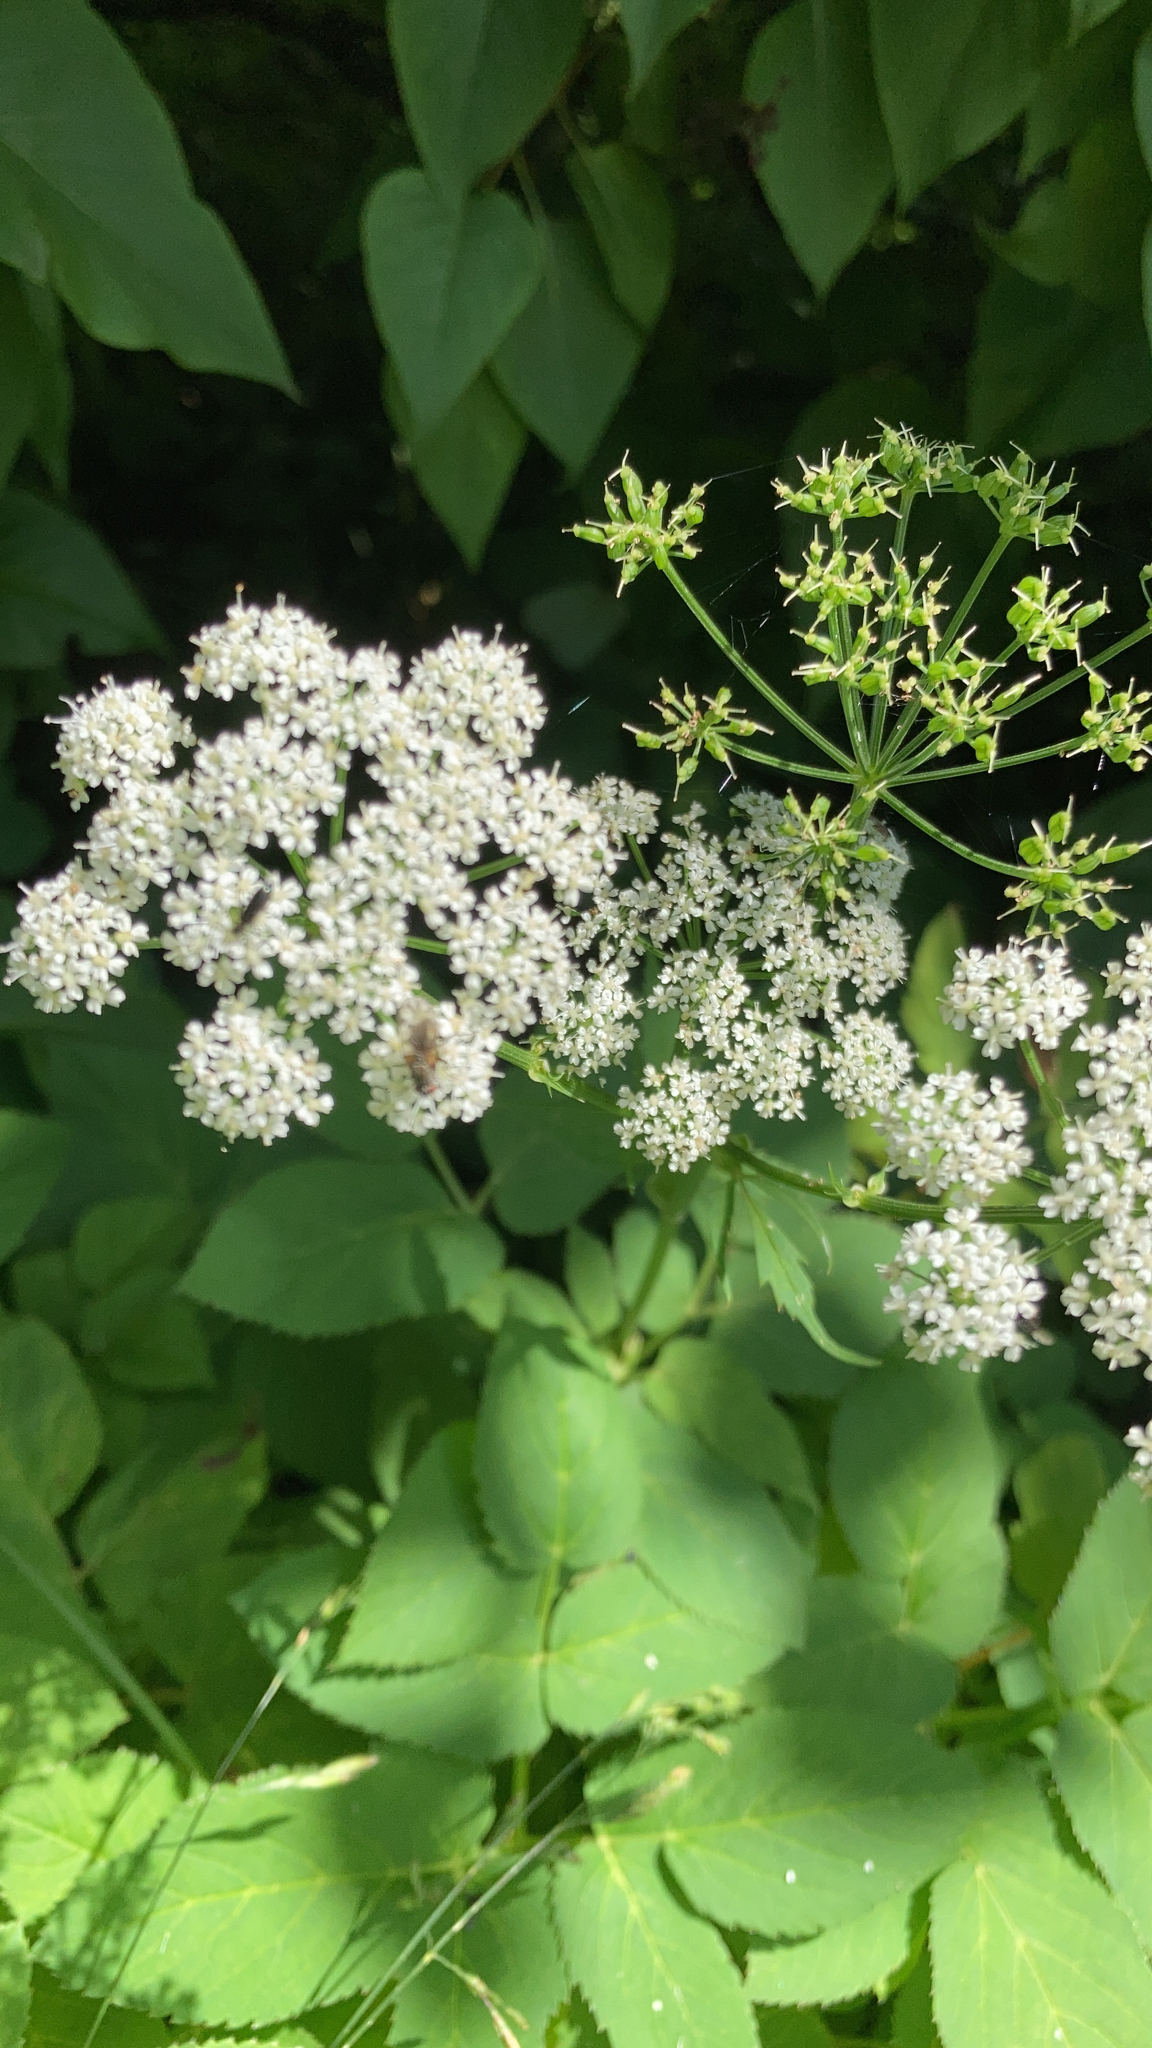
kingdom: Plantae
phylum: Tracheophyta
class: Magnoliopsida
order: Apiales
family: Apiaceae
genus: Aegopodium
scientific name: Aegopodium podagraria
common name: Ground-elder
